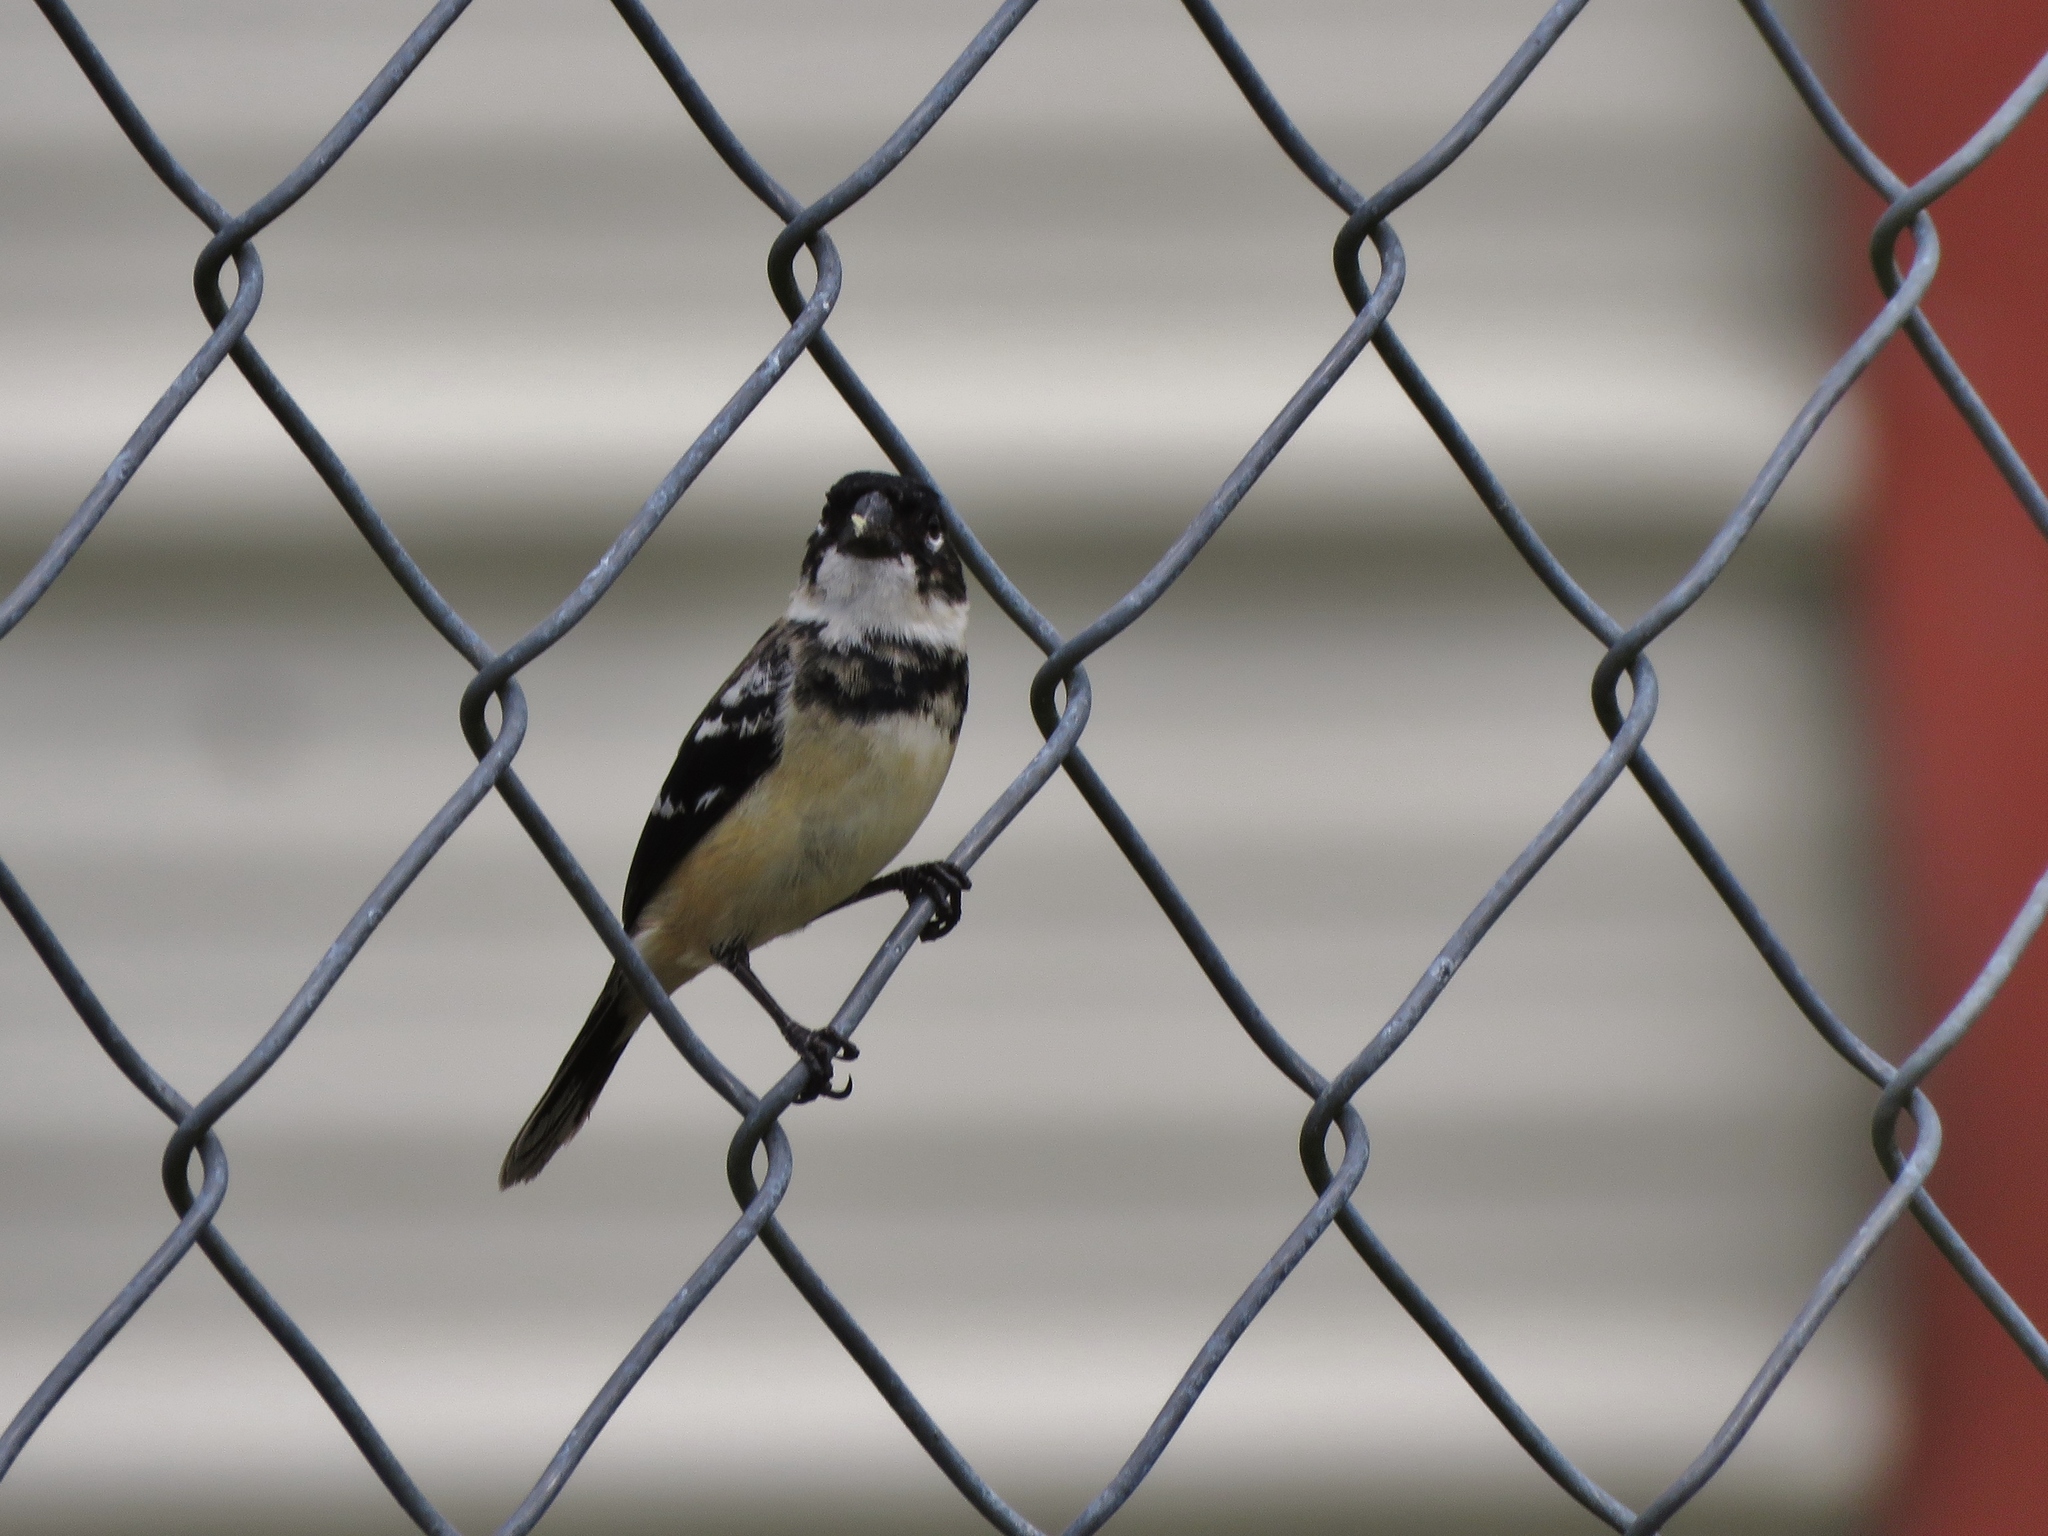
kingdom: Animalia
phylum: Chordata
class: Aves
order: Passeriformes
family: Thraupidae
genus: Sporophila
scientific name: Sporophila morelleti
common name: Morelet's seedeater
